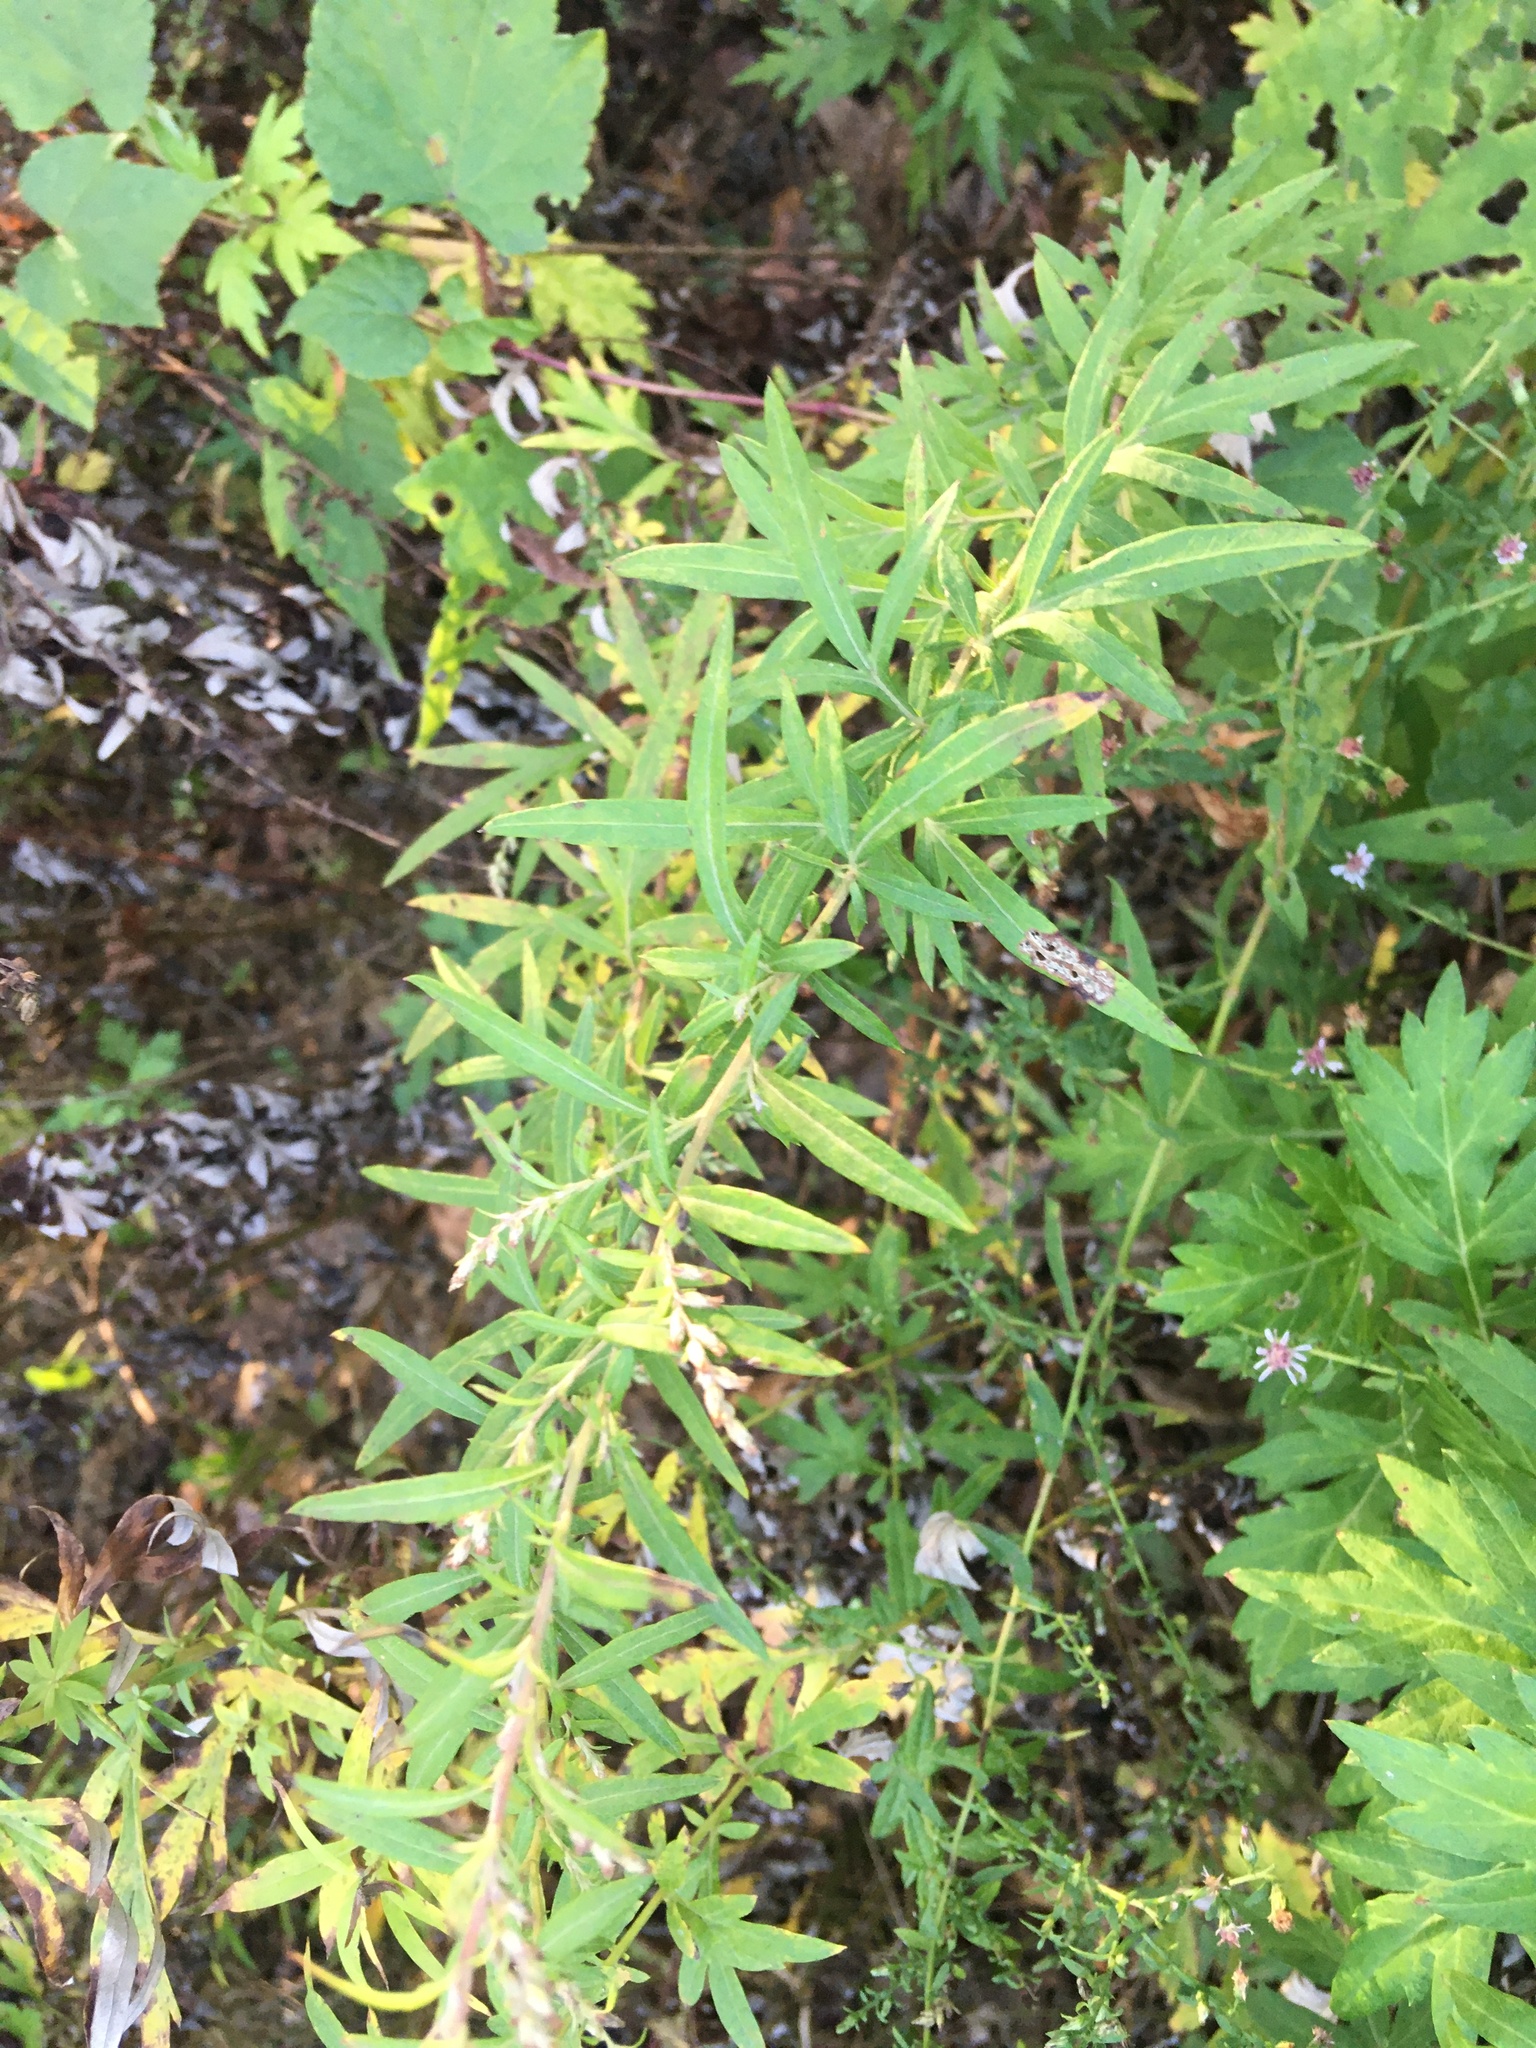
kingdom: Plantae
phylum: Tracheophyta
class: Magnoliopsida
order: Asterales
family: Asteraceae
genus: Artemisia
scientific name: Artemisia vulgaris
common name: Mugwort
